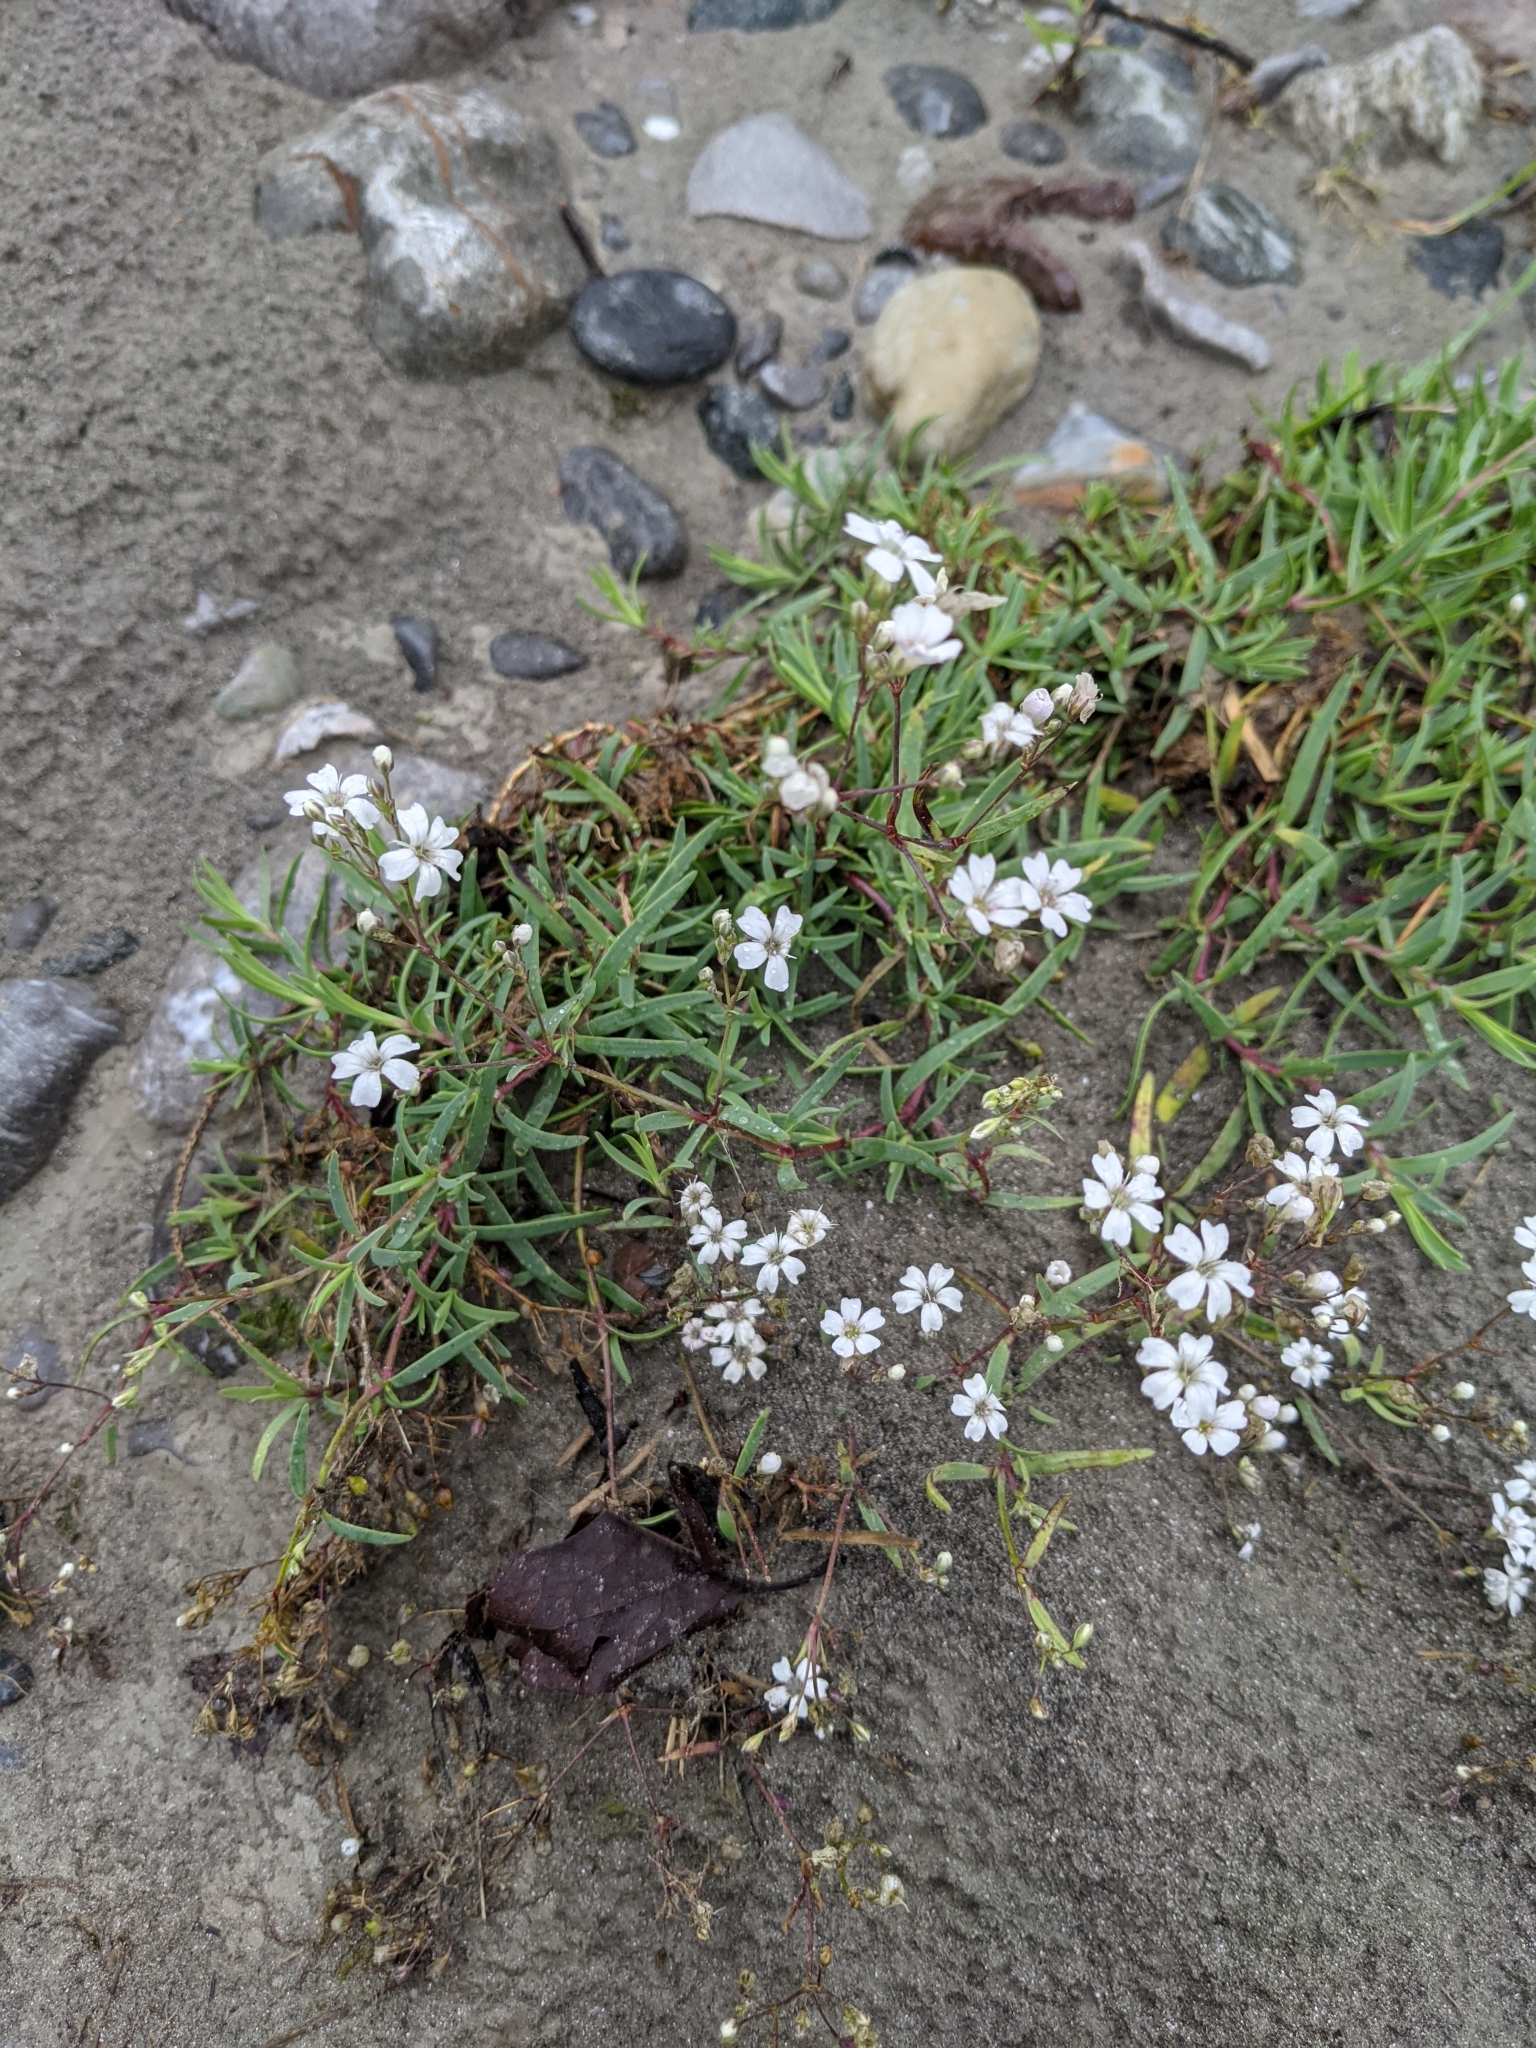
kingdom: Plantae
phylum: Tracheophyta
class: Magnoliopsida
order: Caryophyllales
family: Caryophyllaceae
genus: Gypsophila
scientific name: Gypsophila repens
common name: Creeping baby's-breath
